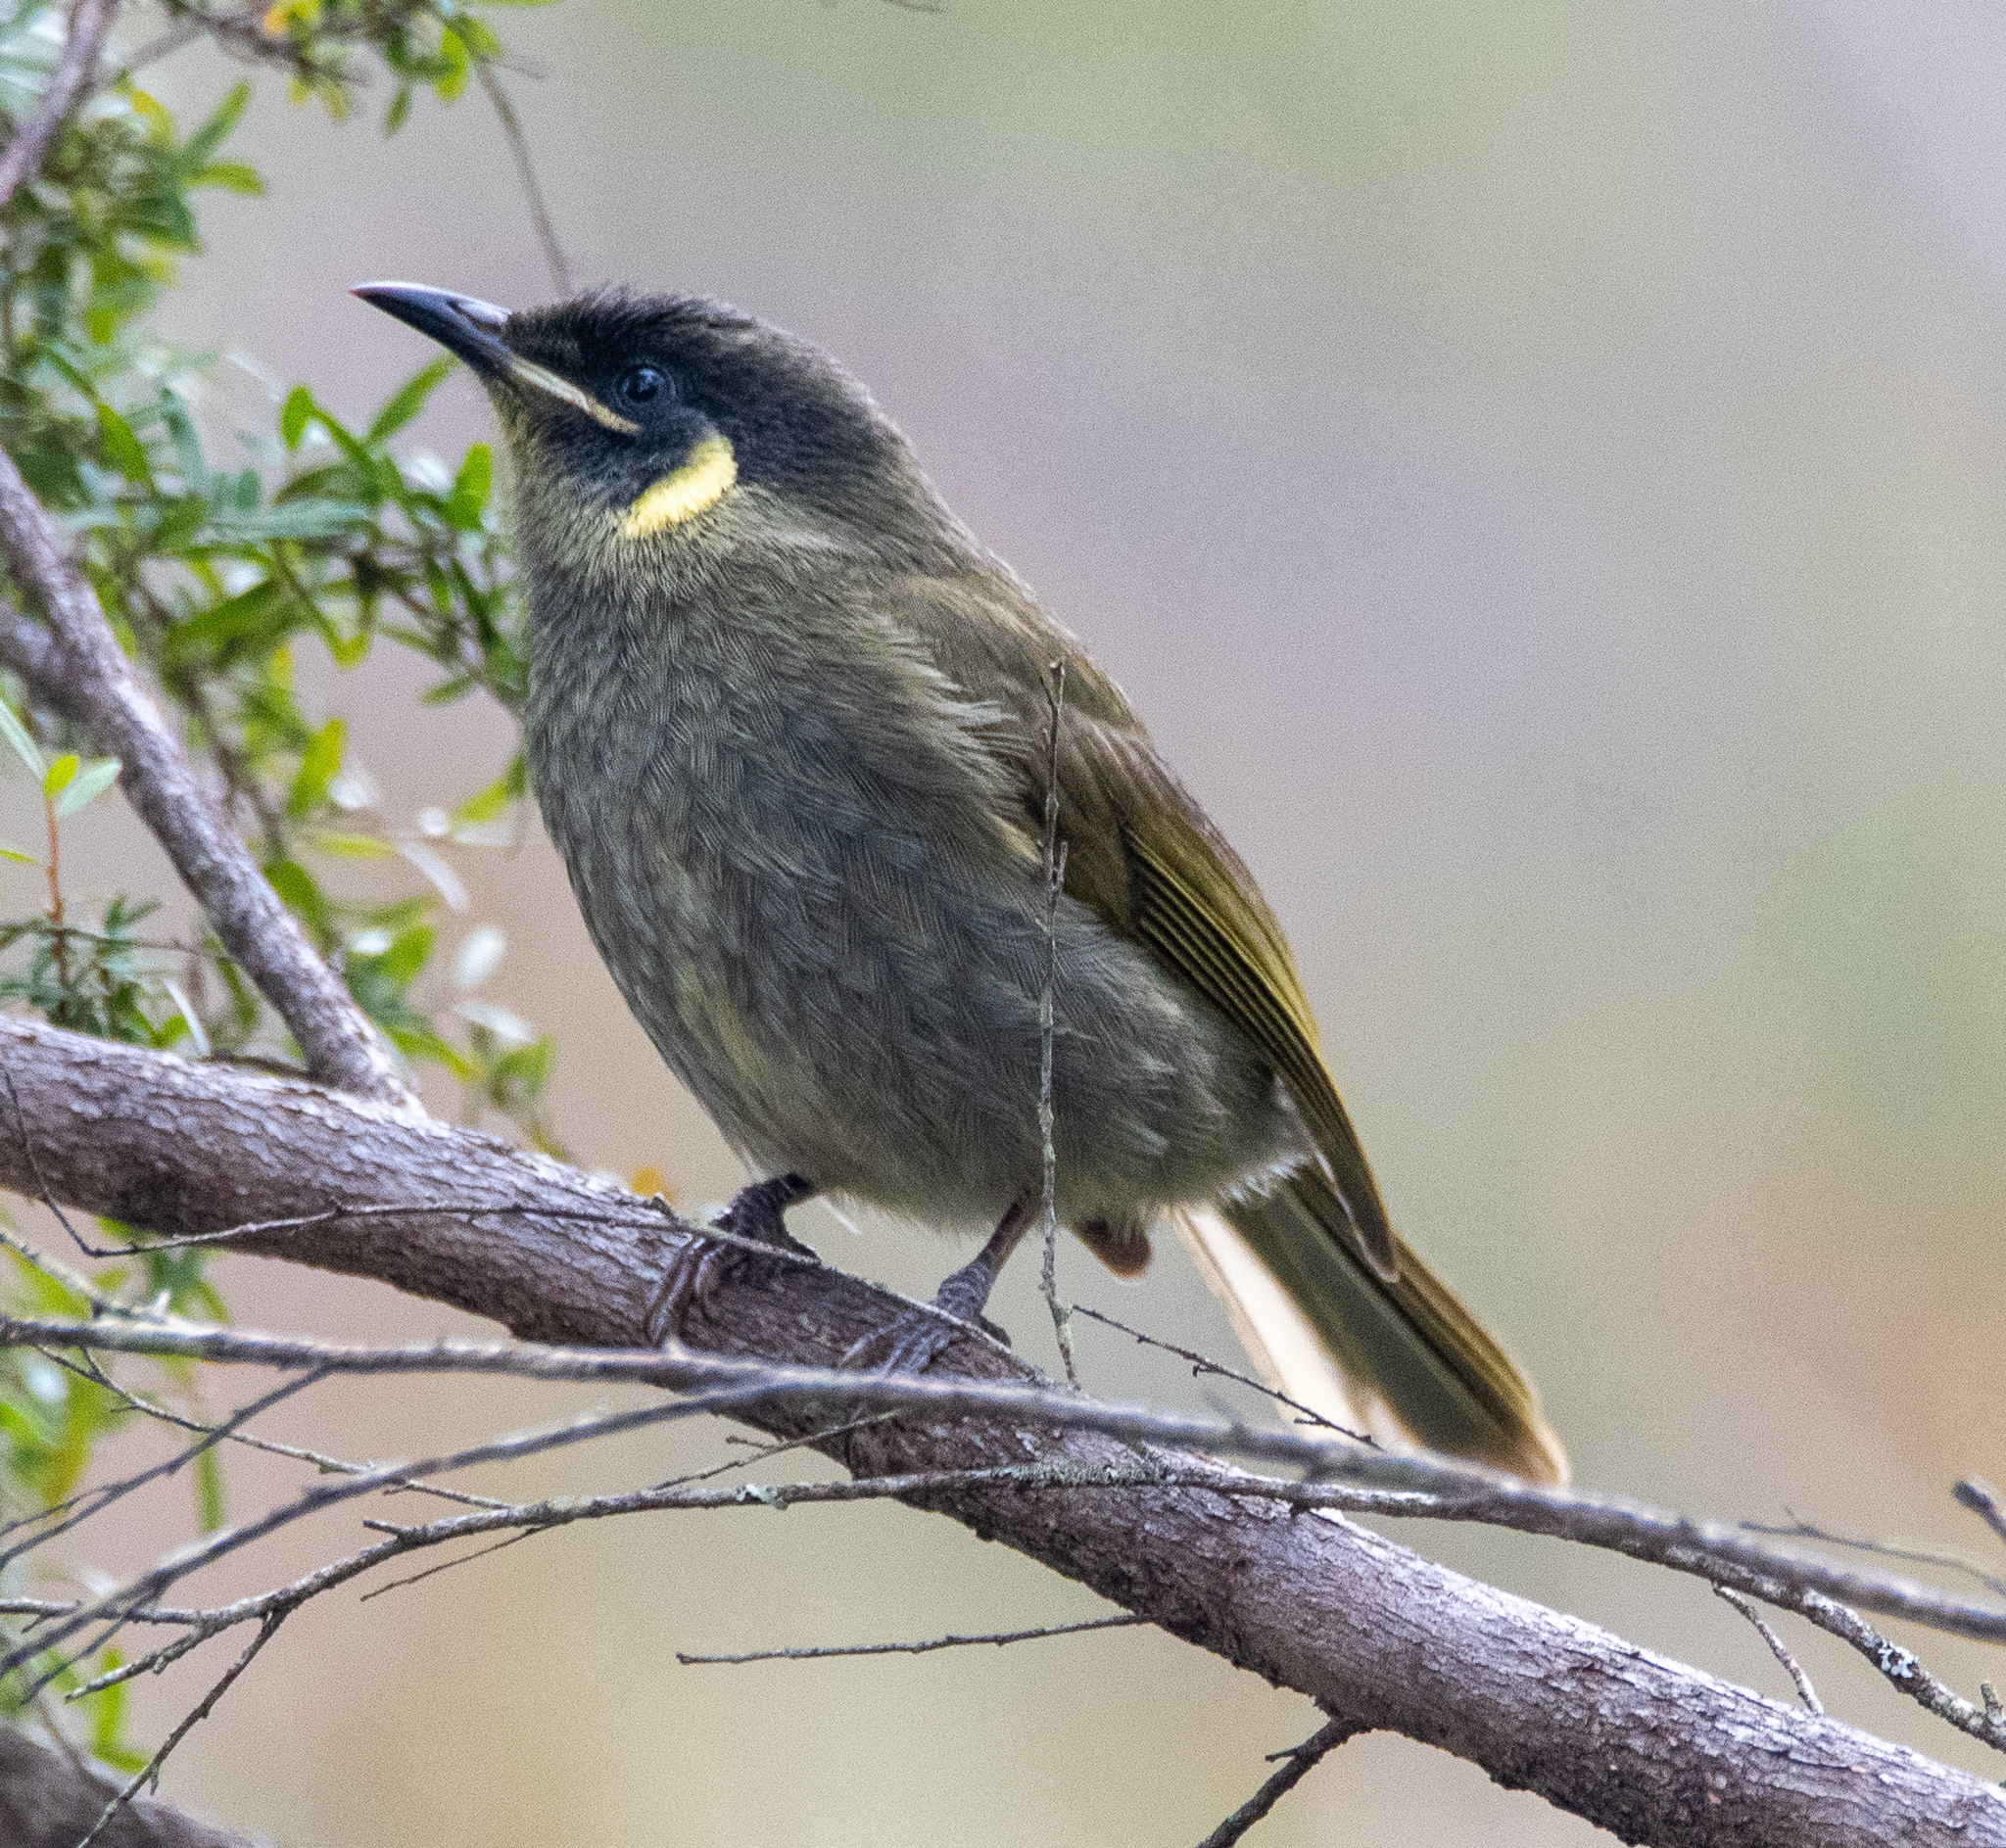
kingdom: Animalia
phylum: Chordata
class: Aves
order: Passeriformes
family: Meliphagidae
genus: Meliphaga
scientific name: Meliphaga lewinii
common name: Lewin's honeyeater
